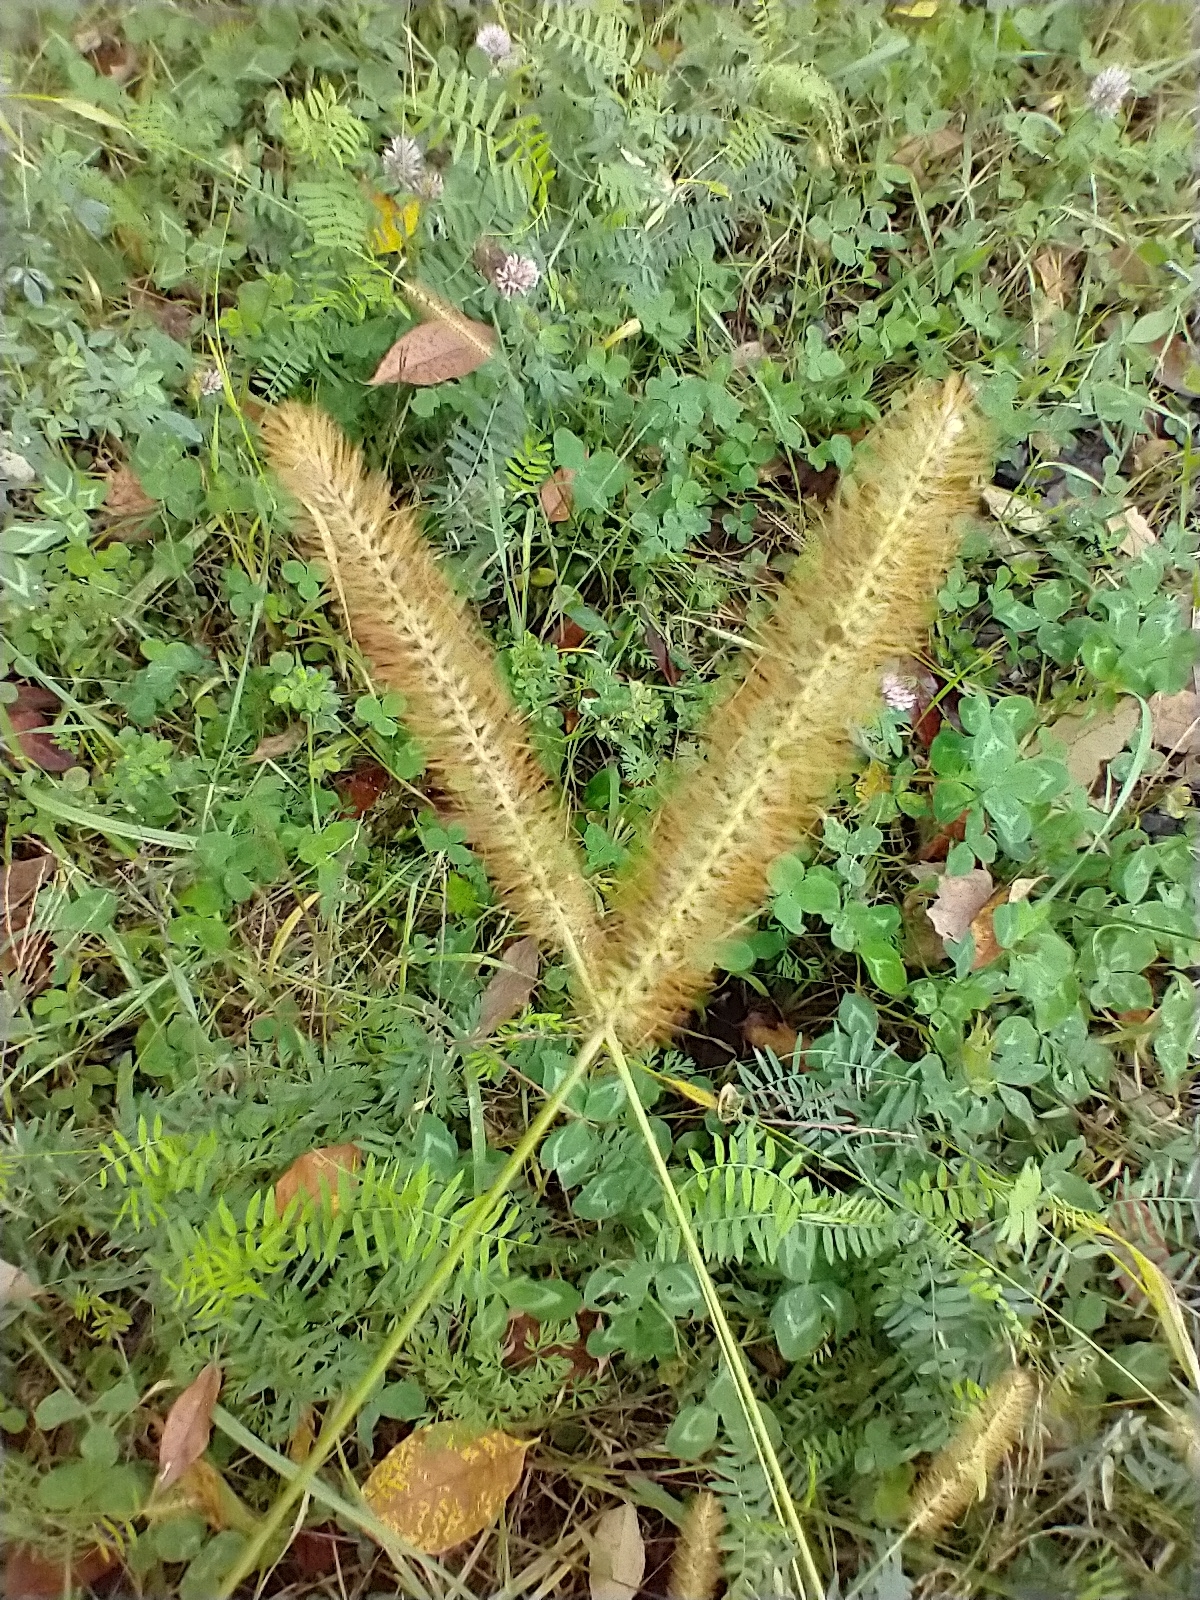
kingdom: Plantae
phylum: Tracheophyta
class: Liliopsida
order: Poales
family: Poaceae
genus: Setaria
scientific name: Setaria pumila
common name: Yellow bristle-grass
